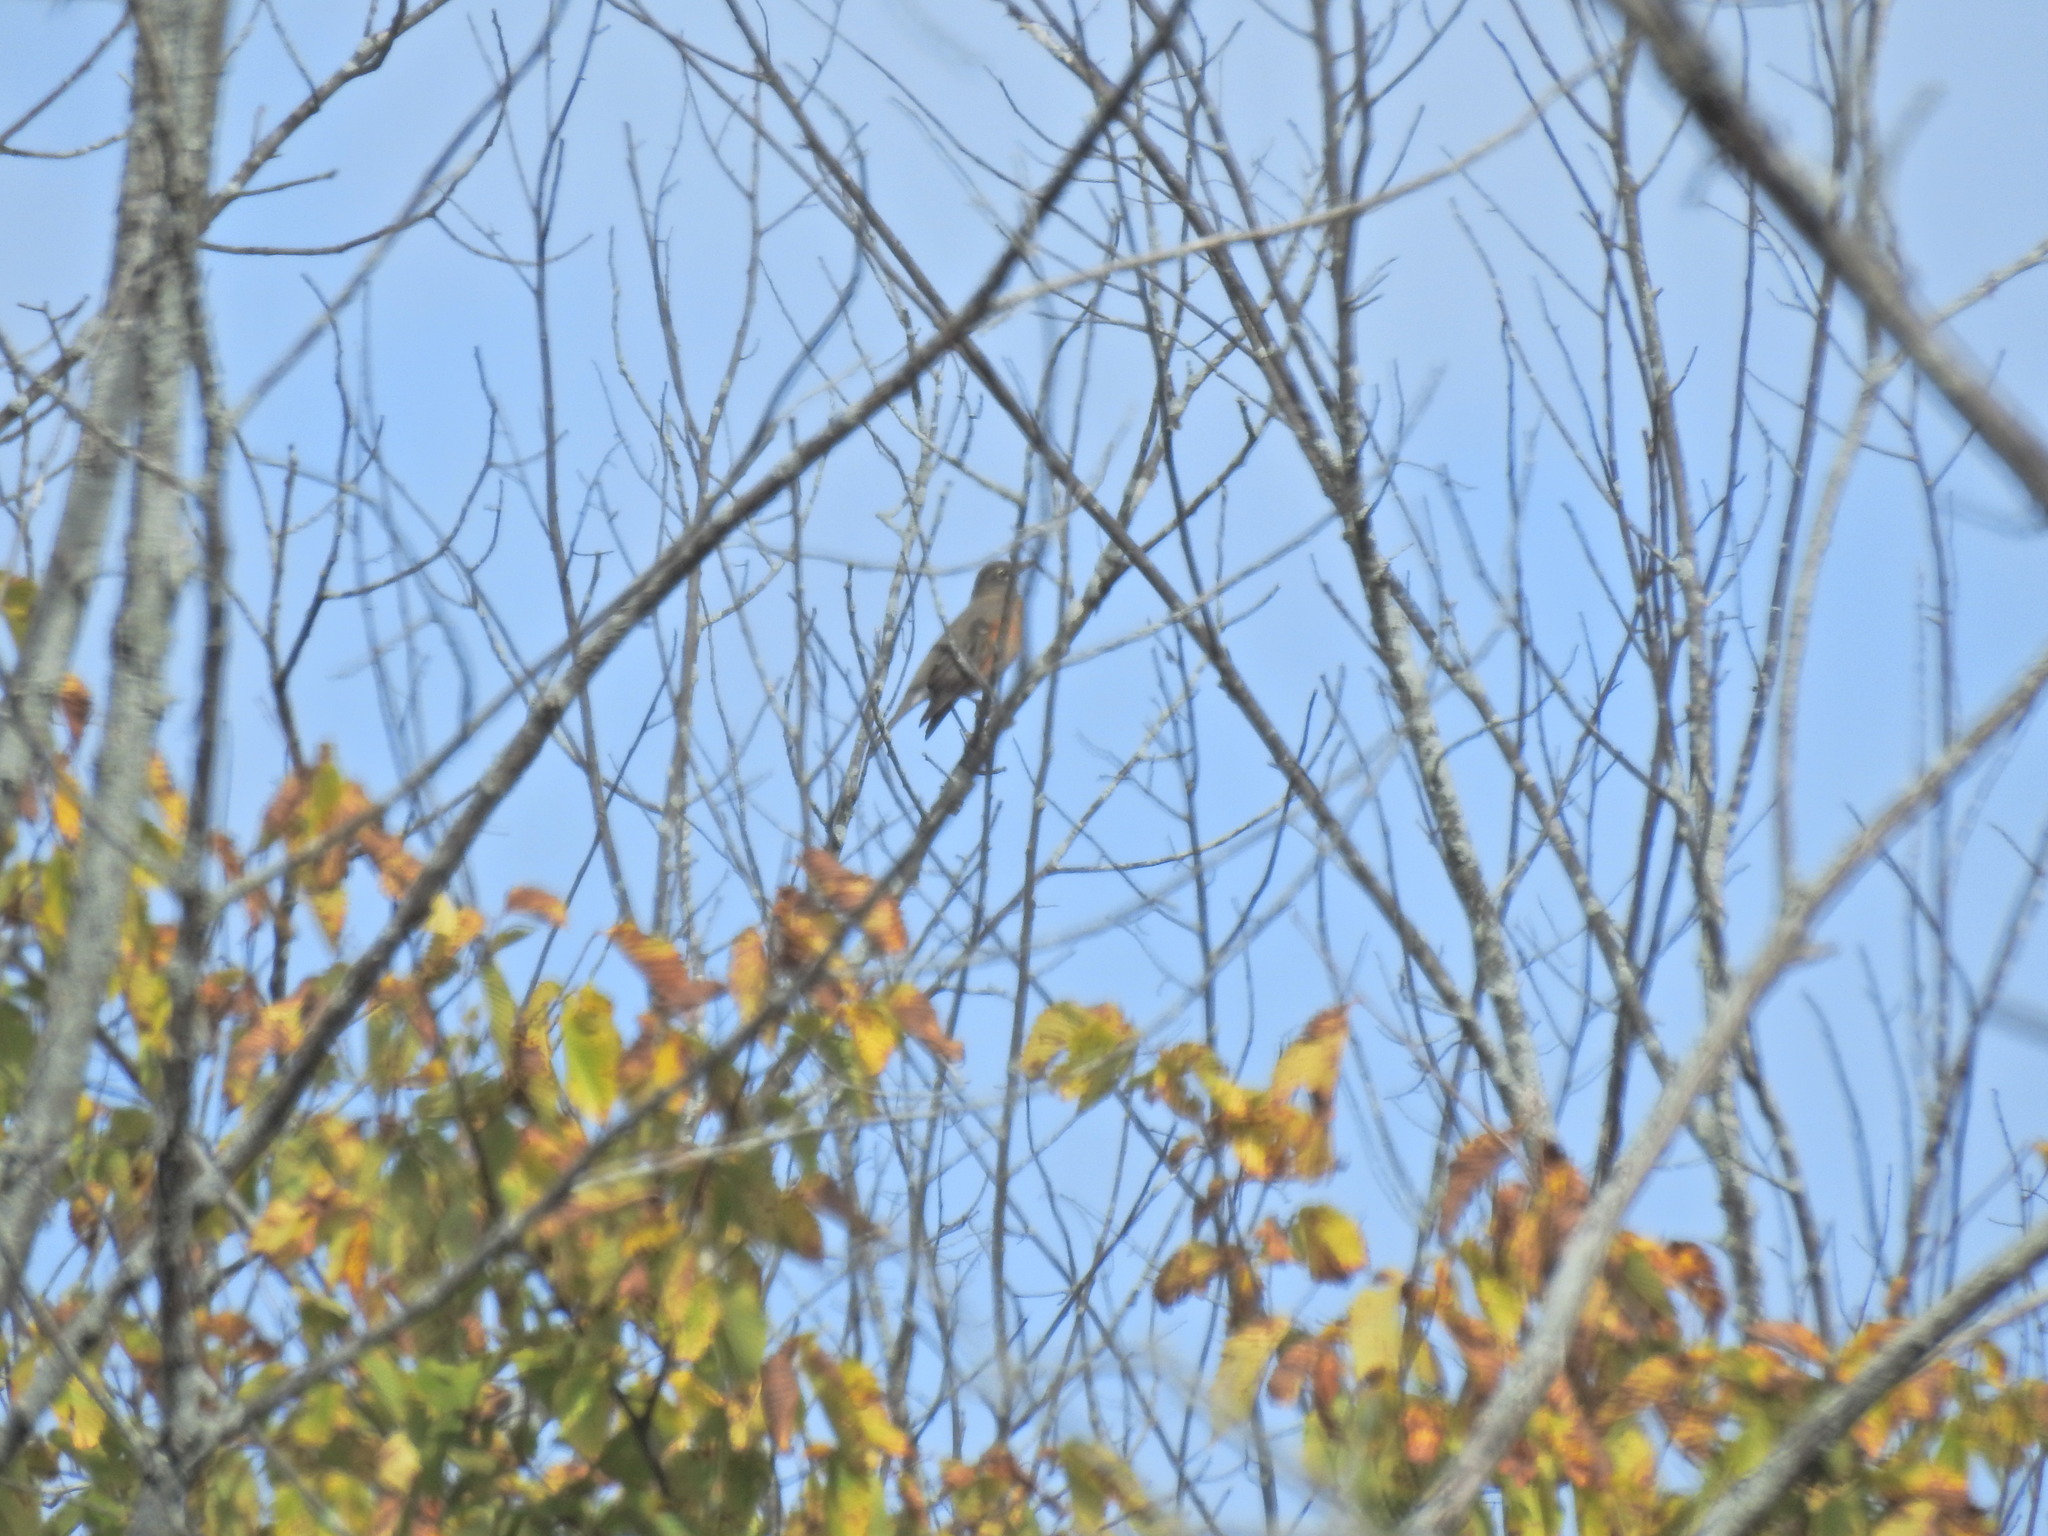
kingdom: Animalia
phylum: Chordata
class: Aves
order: Passeriformes
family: Turdidae
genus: Turdus
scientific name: Turdus migratorius
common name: American robin
